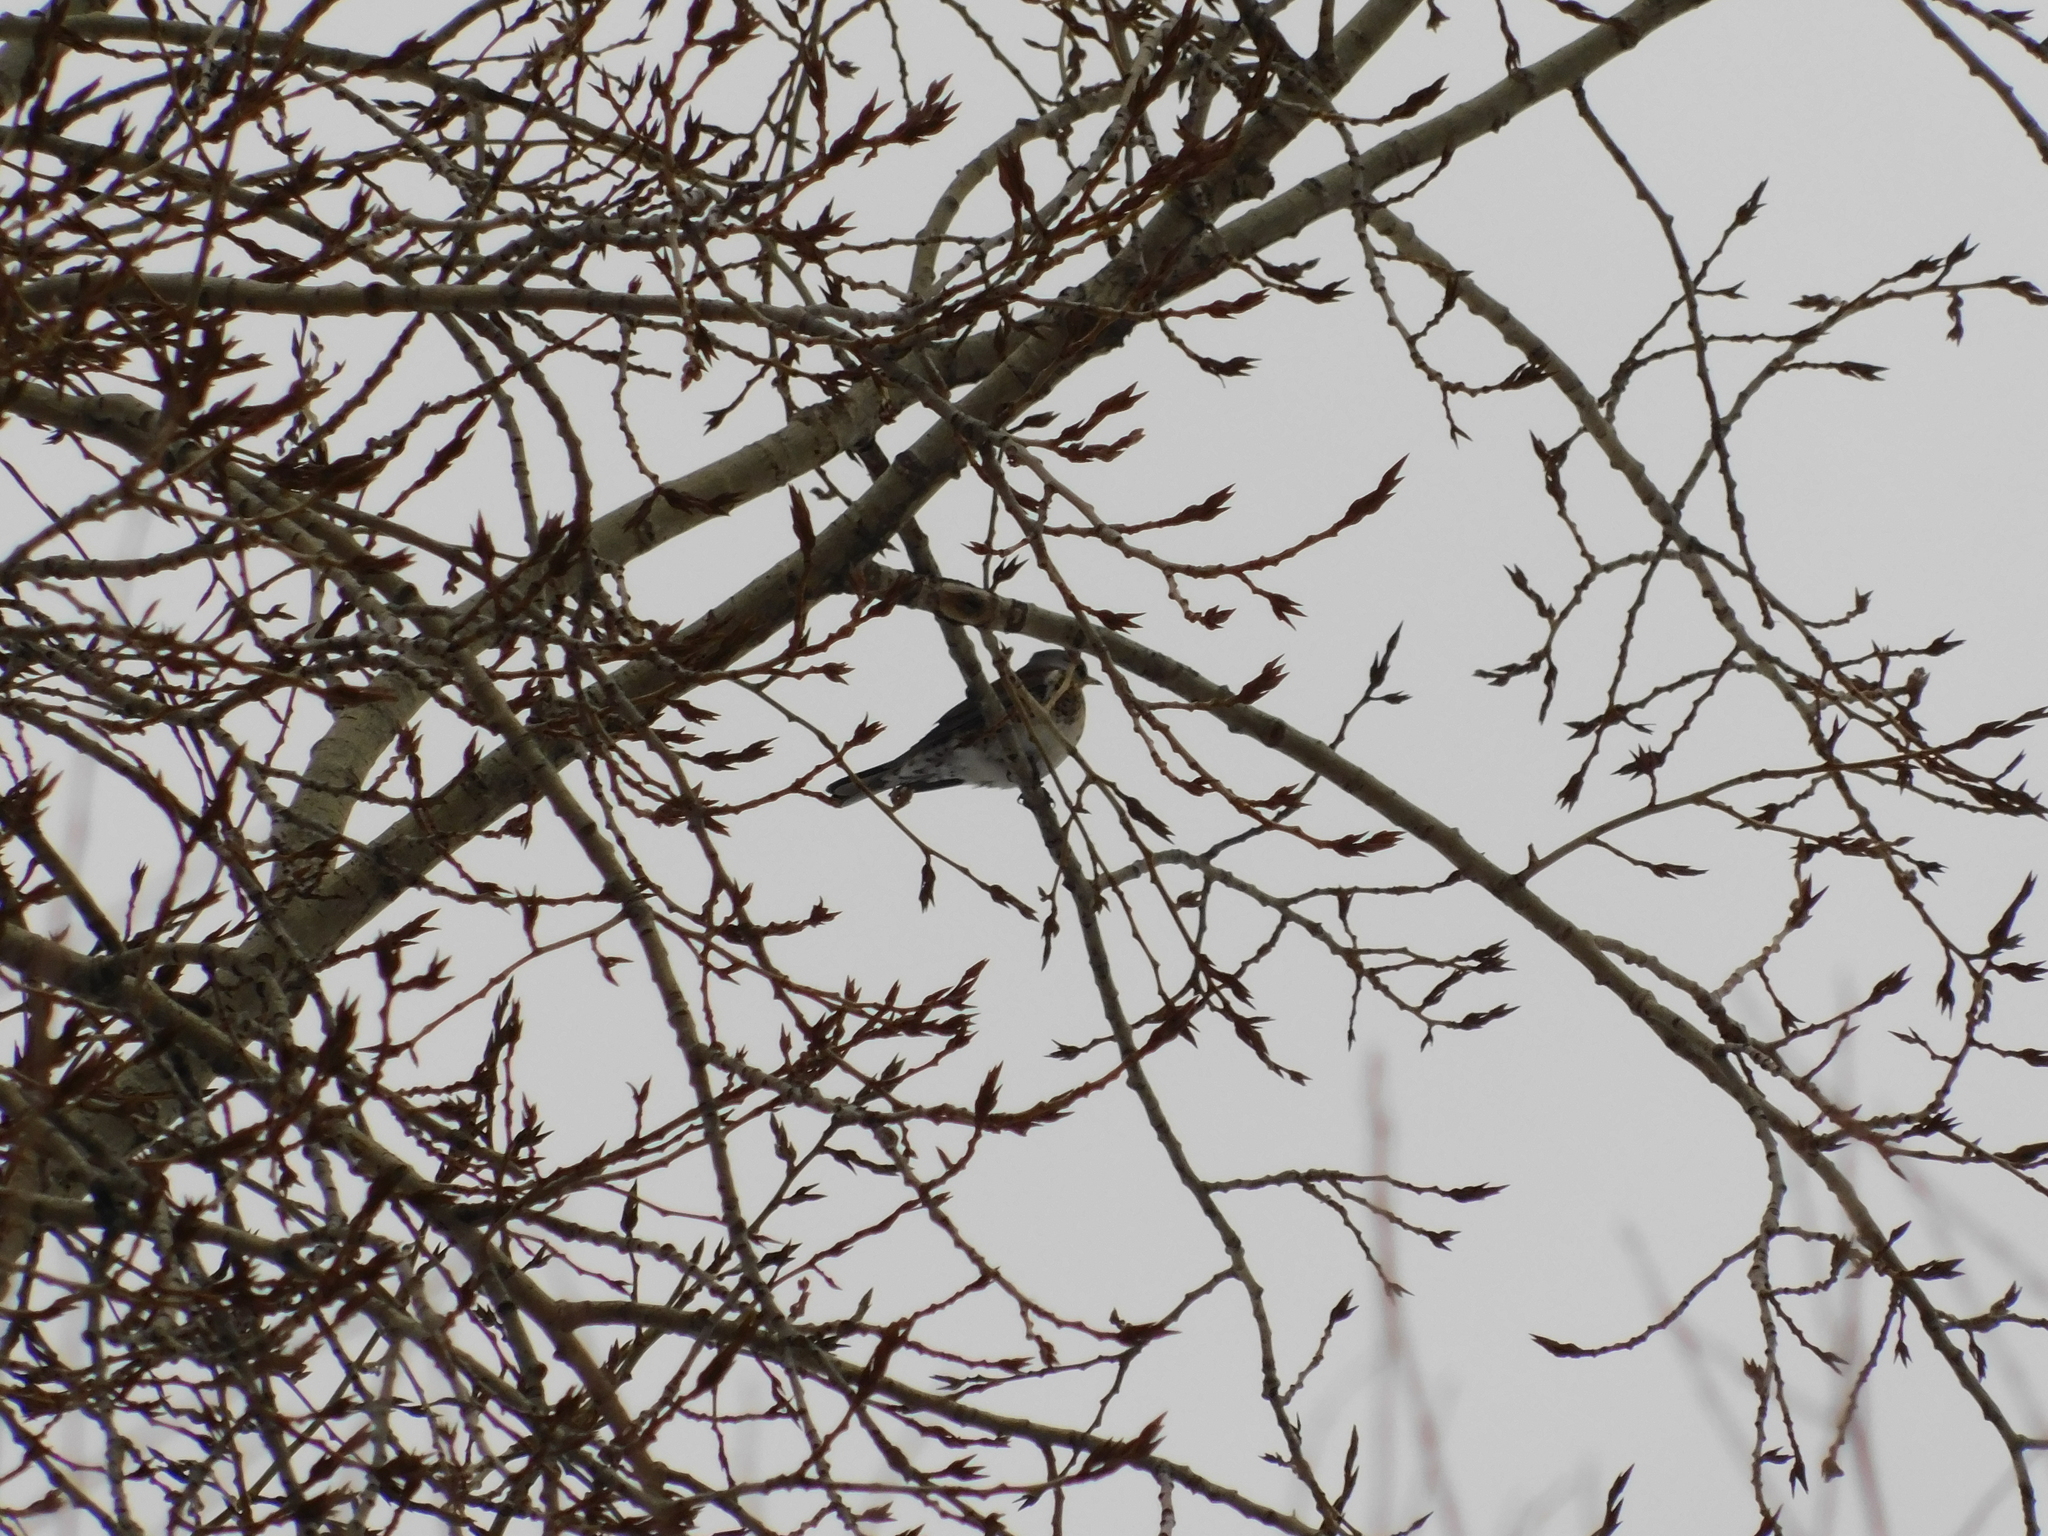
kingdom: Animalia
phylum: Chordata
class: Aves
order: Passeriformes
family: Turdidae
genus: Turdus
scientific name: Turdus pilaris
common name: Fieldfare
